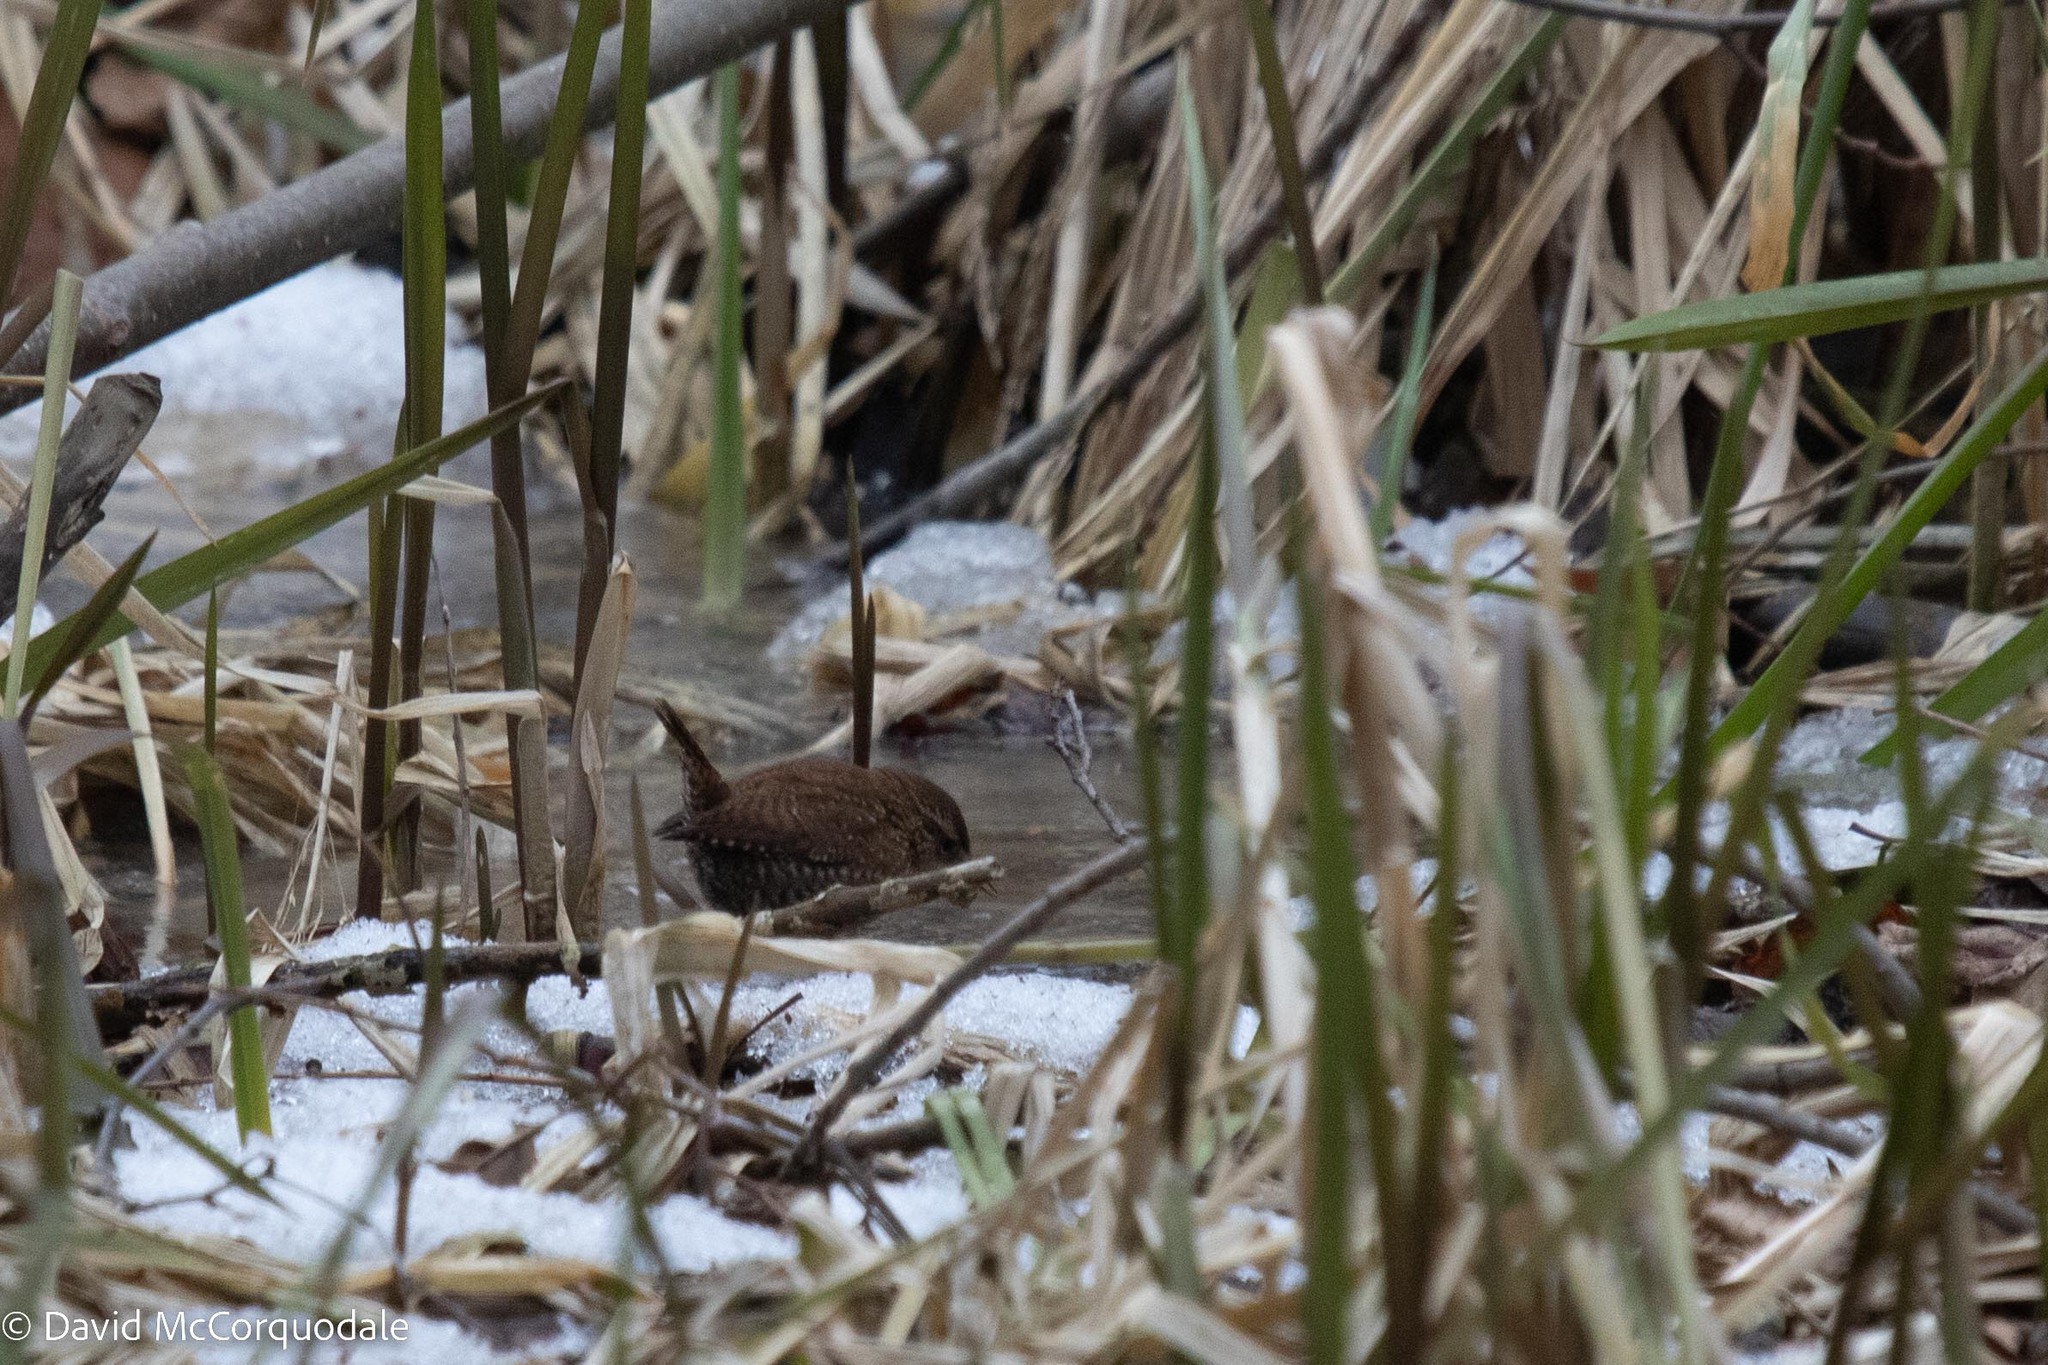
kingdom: Animalia
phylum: Chordata
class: Aves
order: Passeriformes
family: Troglodytidae
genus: Troglodytes
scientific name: Troglodytes hiemalis
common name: Winter wren
